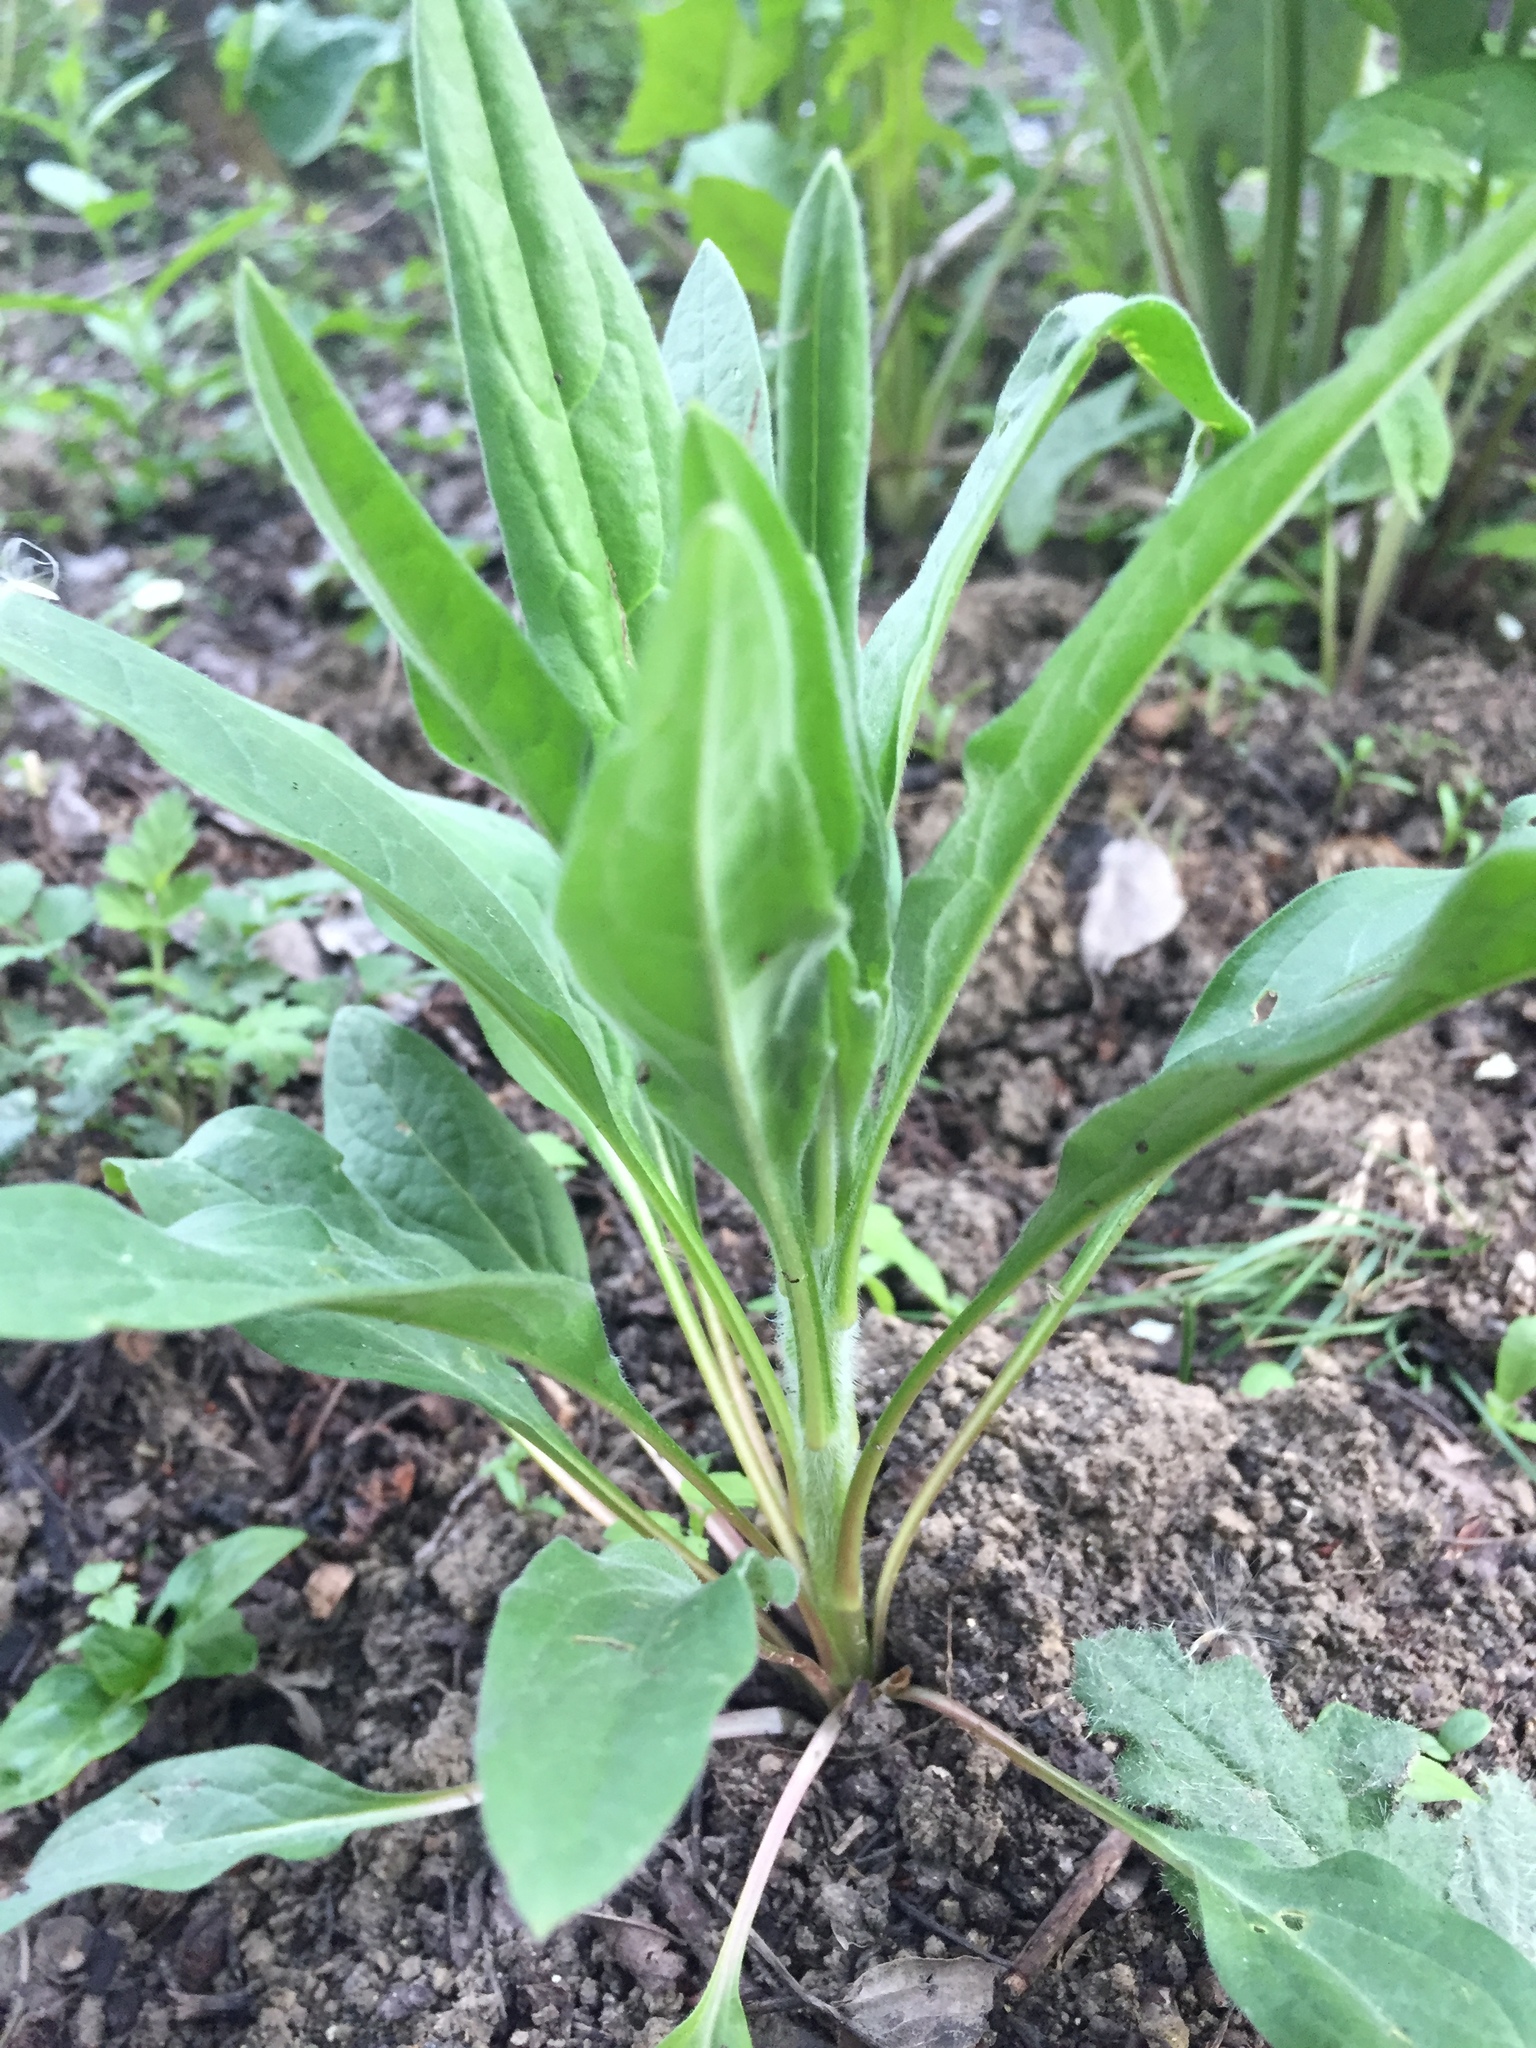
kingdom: Plantae
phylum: Tracheophyta
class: Magnoliopsida
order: Boraginales
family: Boraginaceae
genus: Cynoglossum
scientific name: Cynoglossum officinale
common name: Hound's-tongue
